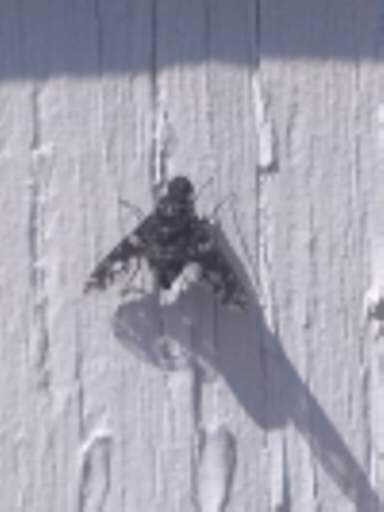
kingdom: Animalia
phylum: Arthropoda
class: Insecta
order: Diptera
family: Bombyliidae
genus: Xenox
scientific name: Xenox tigrinus
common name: Tiger bee fly
